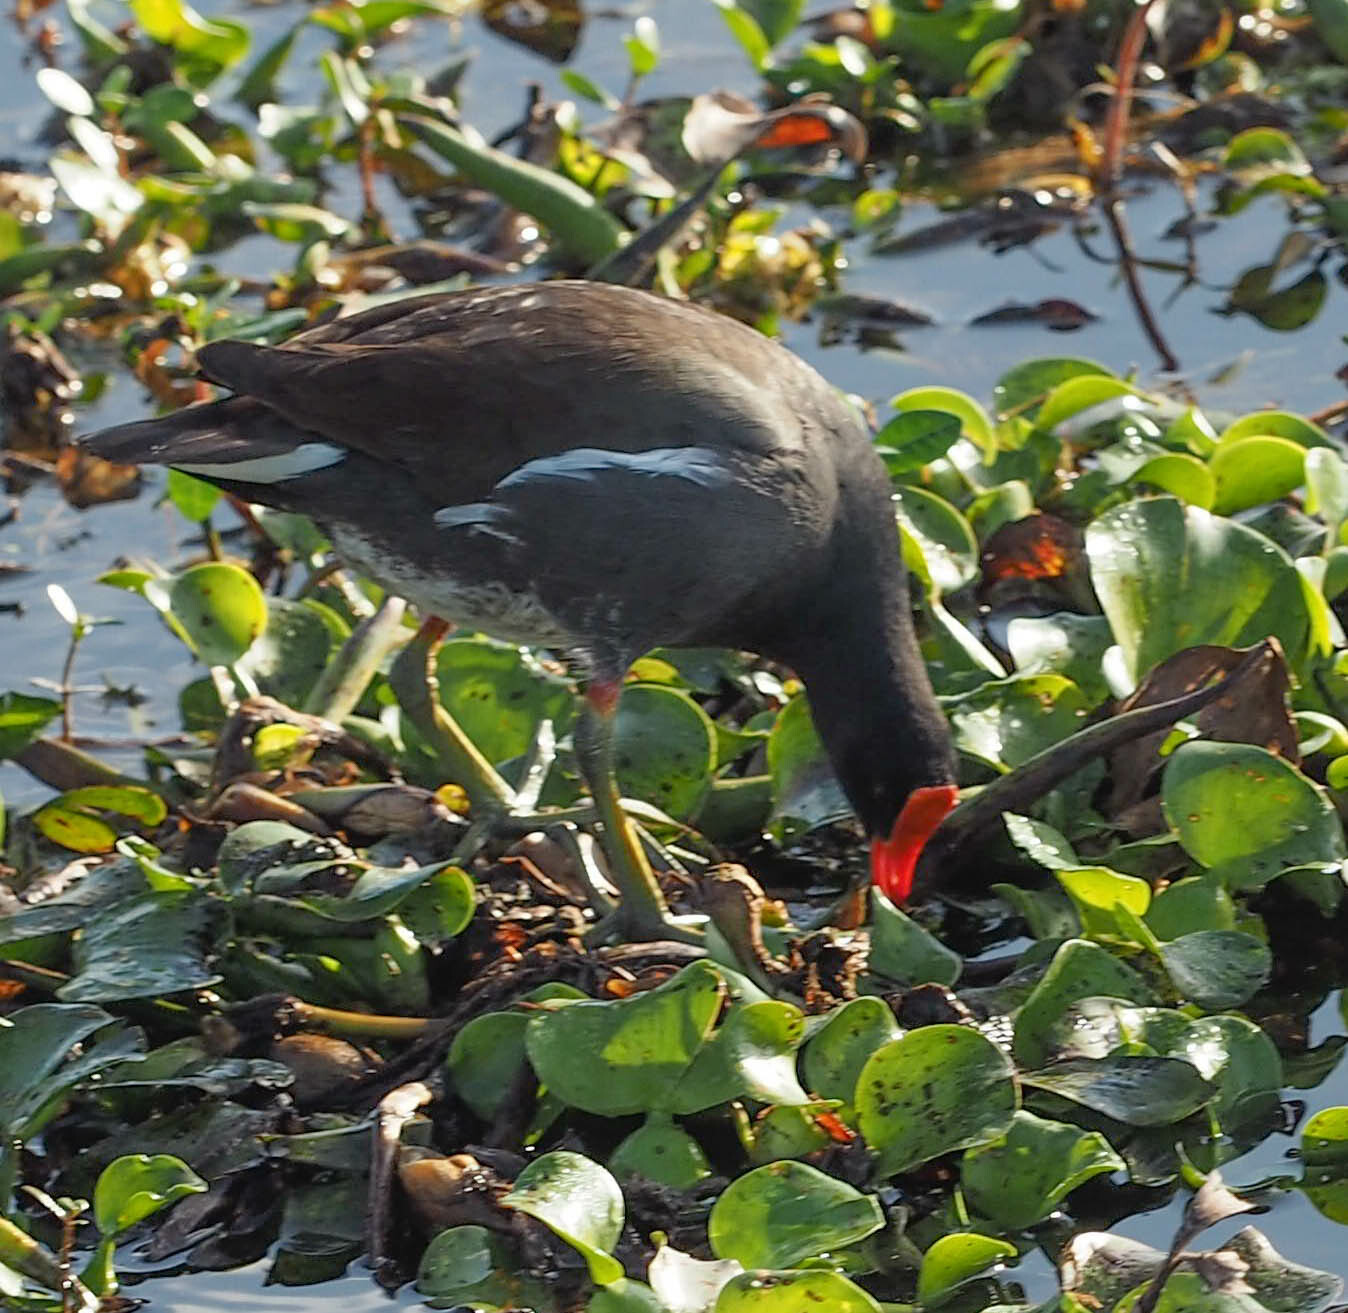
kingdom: Animalia
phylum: Chordata
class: Aves
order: Gruiformes
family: Rallidae
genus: Gallinula
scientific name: Gallinula chloropus
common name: Common moorhen
